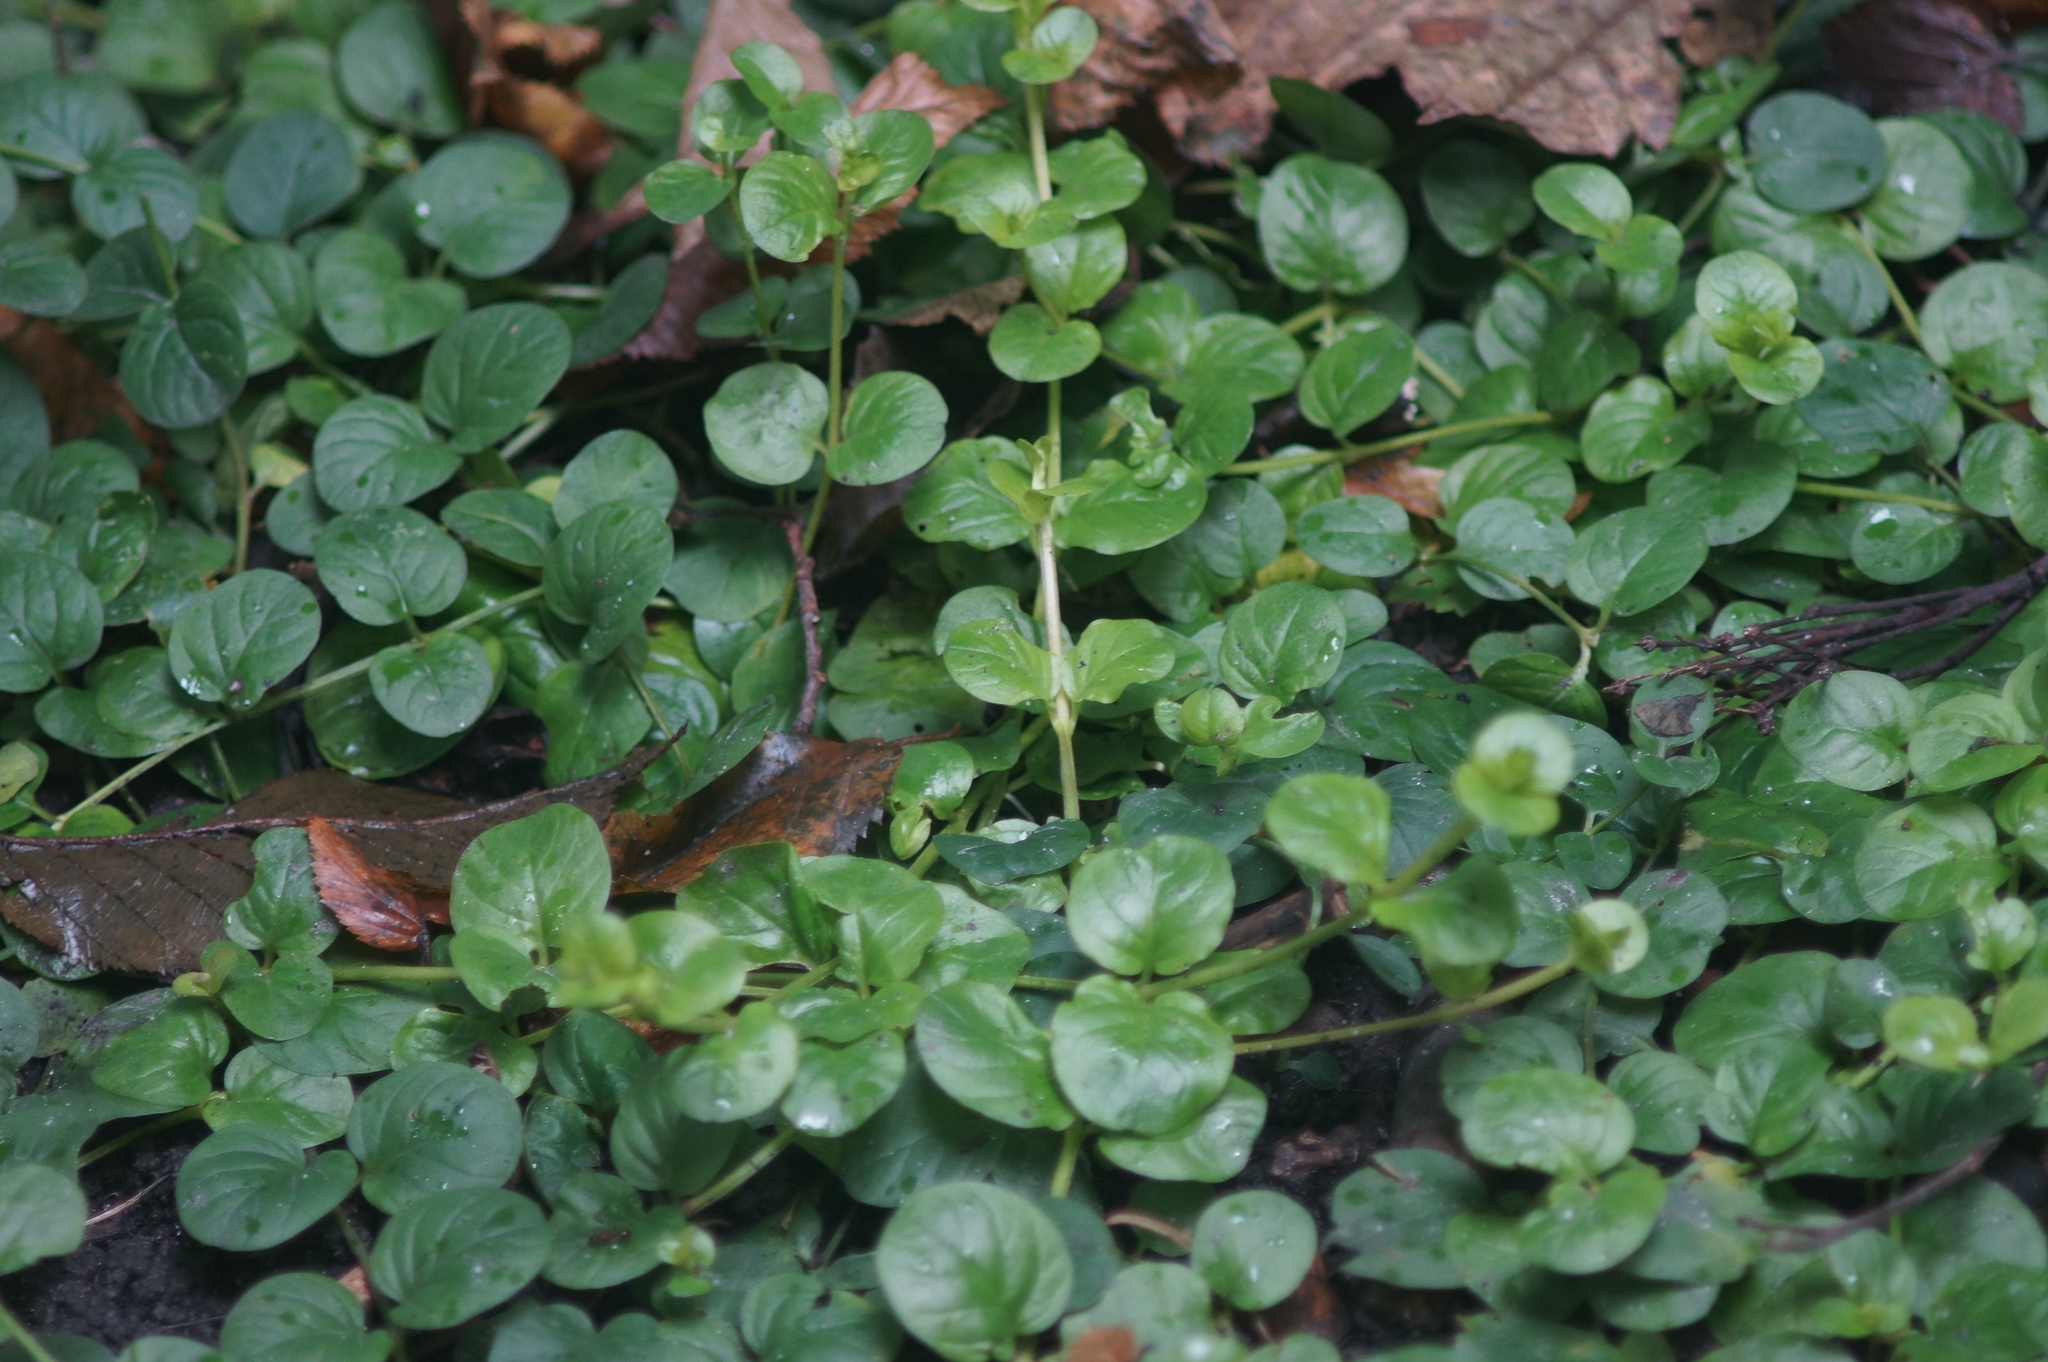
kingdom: Plantae
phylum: Tracheophyta
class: Magnoliopsida
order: Ericales
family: Primulaceae
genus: Lysimachia
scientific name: Lysimachia nummularia
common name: Moneywort
